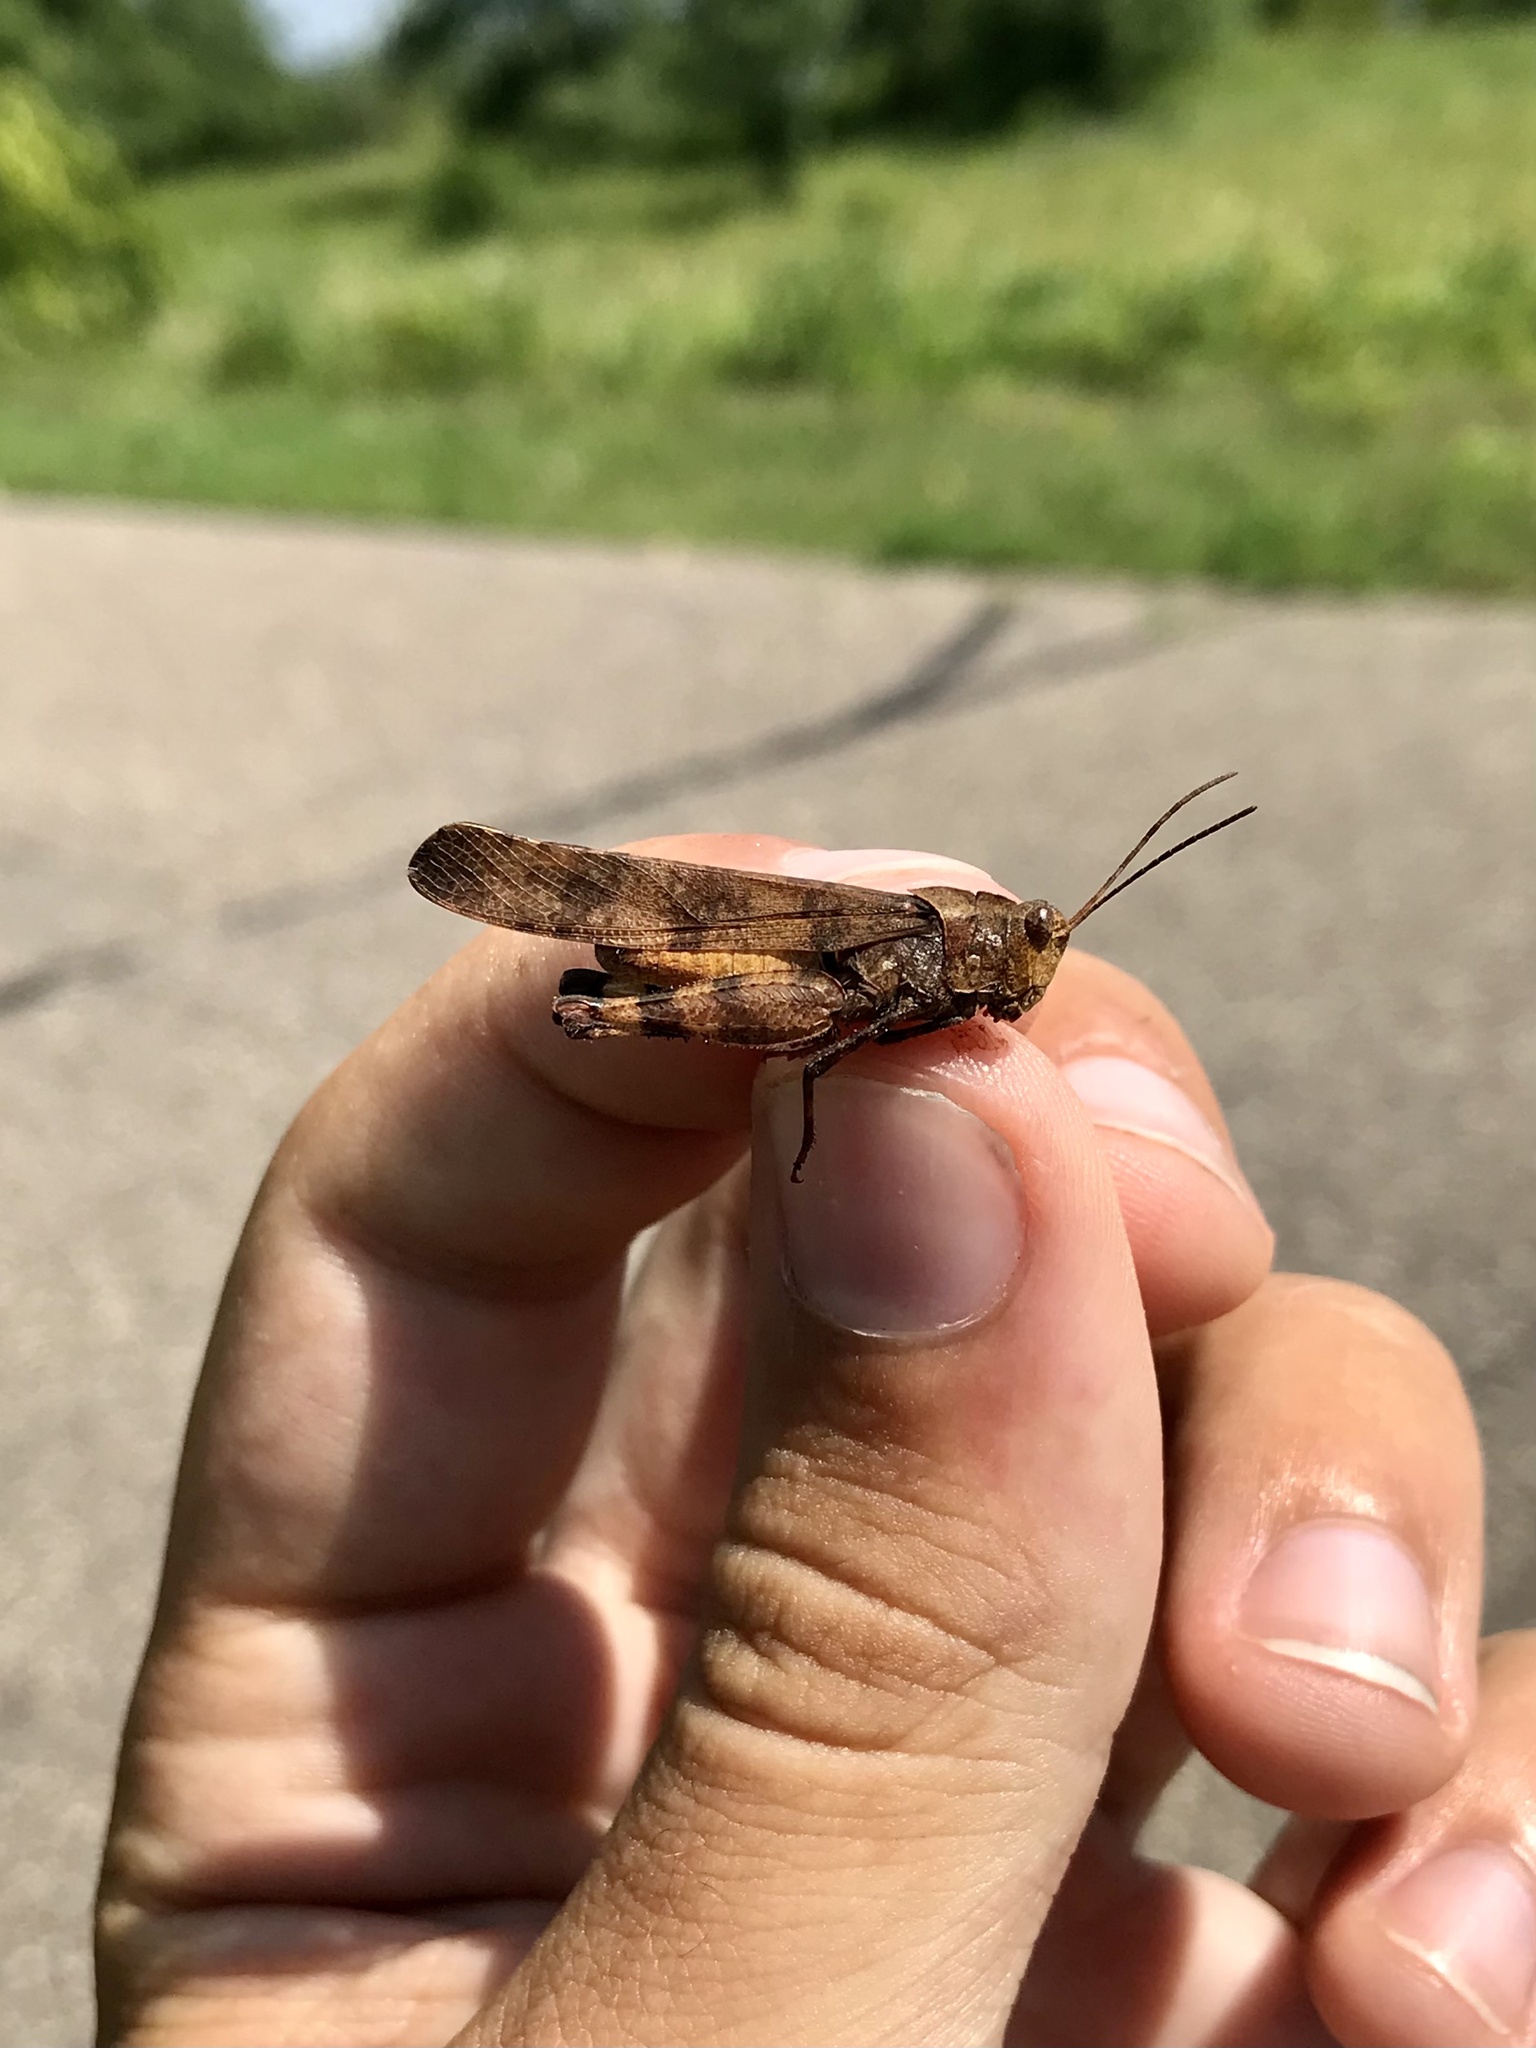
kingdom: Animalia
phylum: Arthropoda
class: Insecta
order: Orthoptera
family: Acrididae
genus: Spharagemon
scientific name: Spharagemon bolli
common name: Boll's grasshopper
